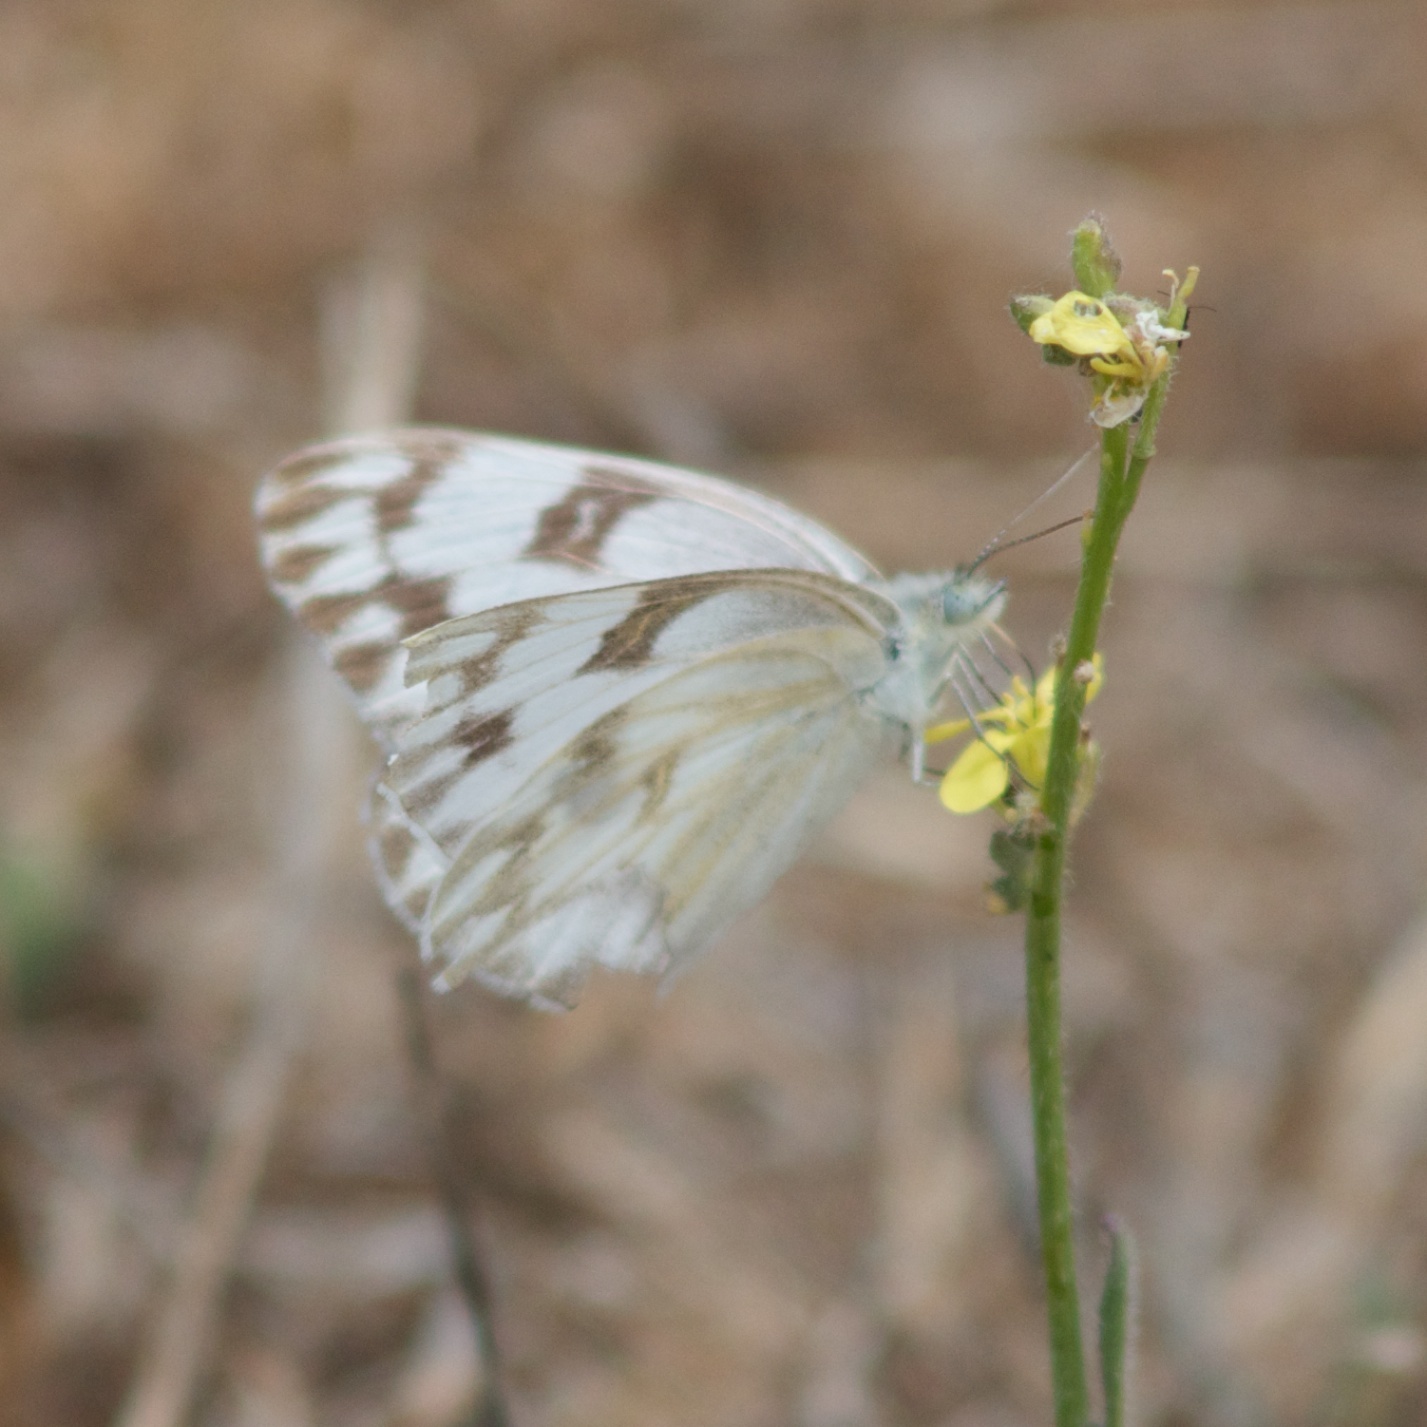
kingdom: Animalia
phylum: Arthropoda
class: Insecta
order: Lepidoptera
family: Pieridae
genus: Pontia
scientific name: Pontia protodice
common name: Checkered white
